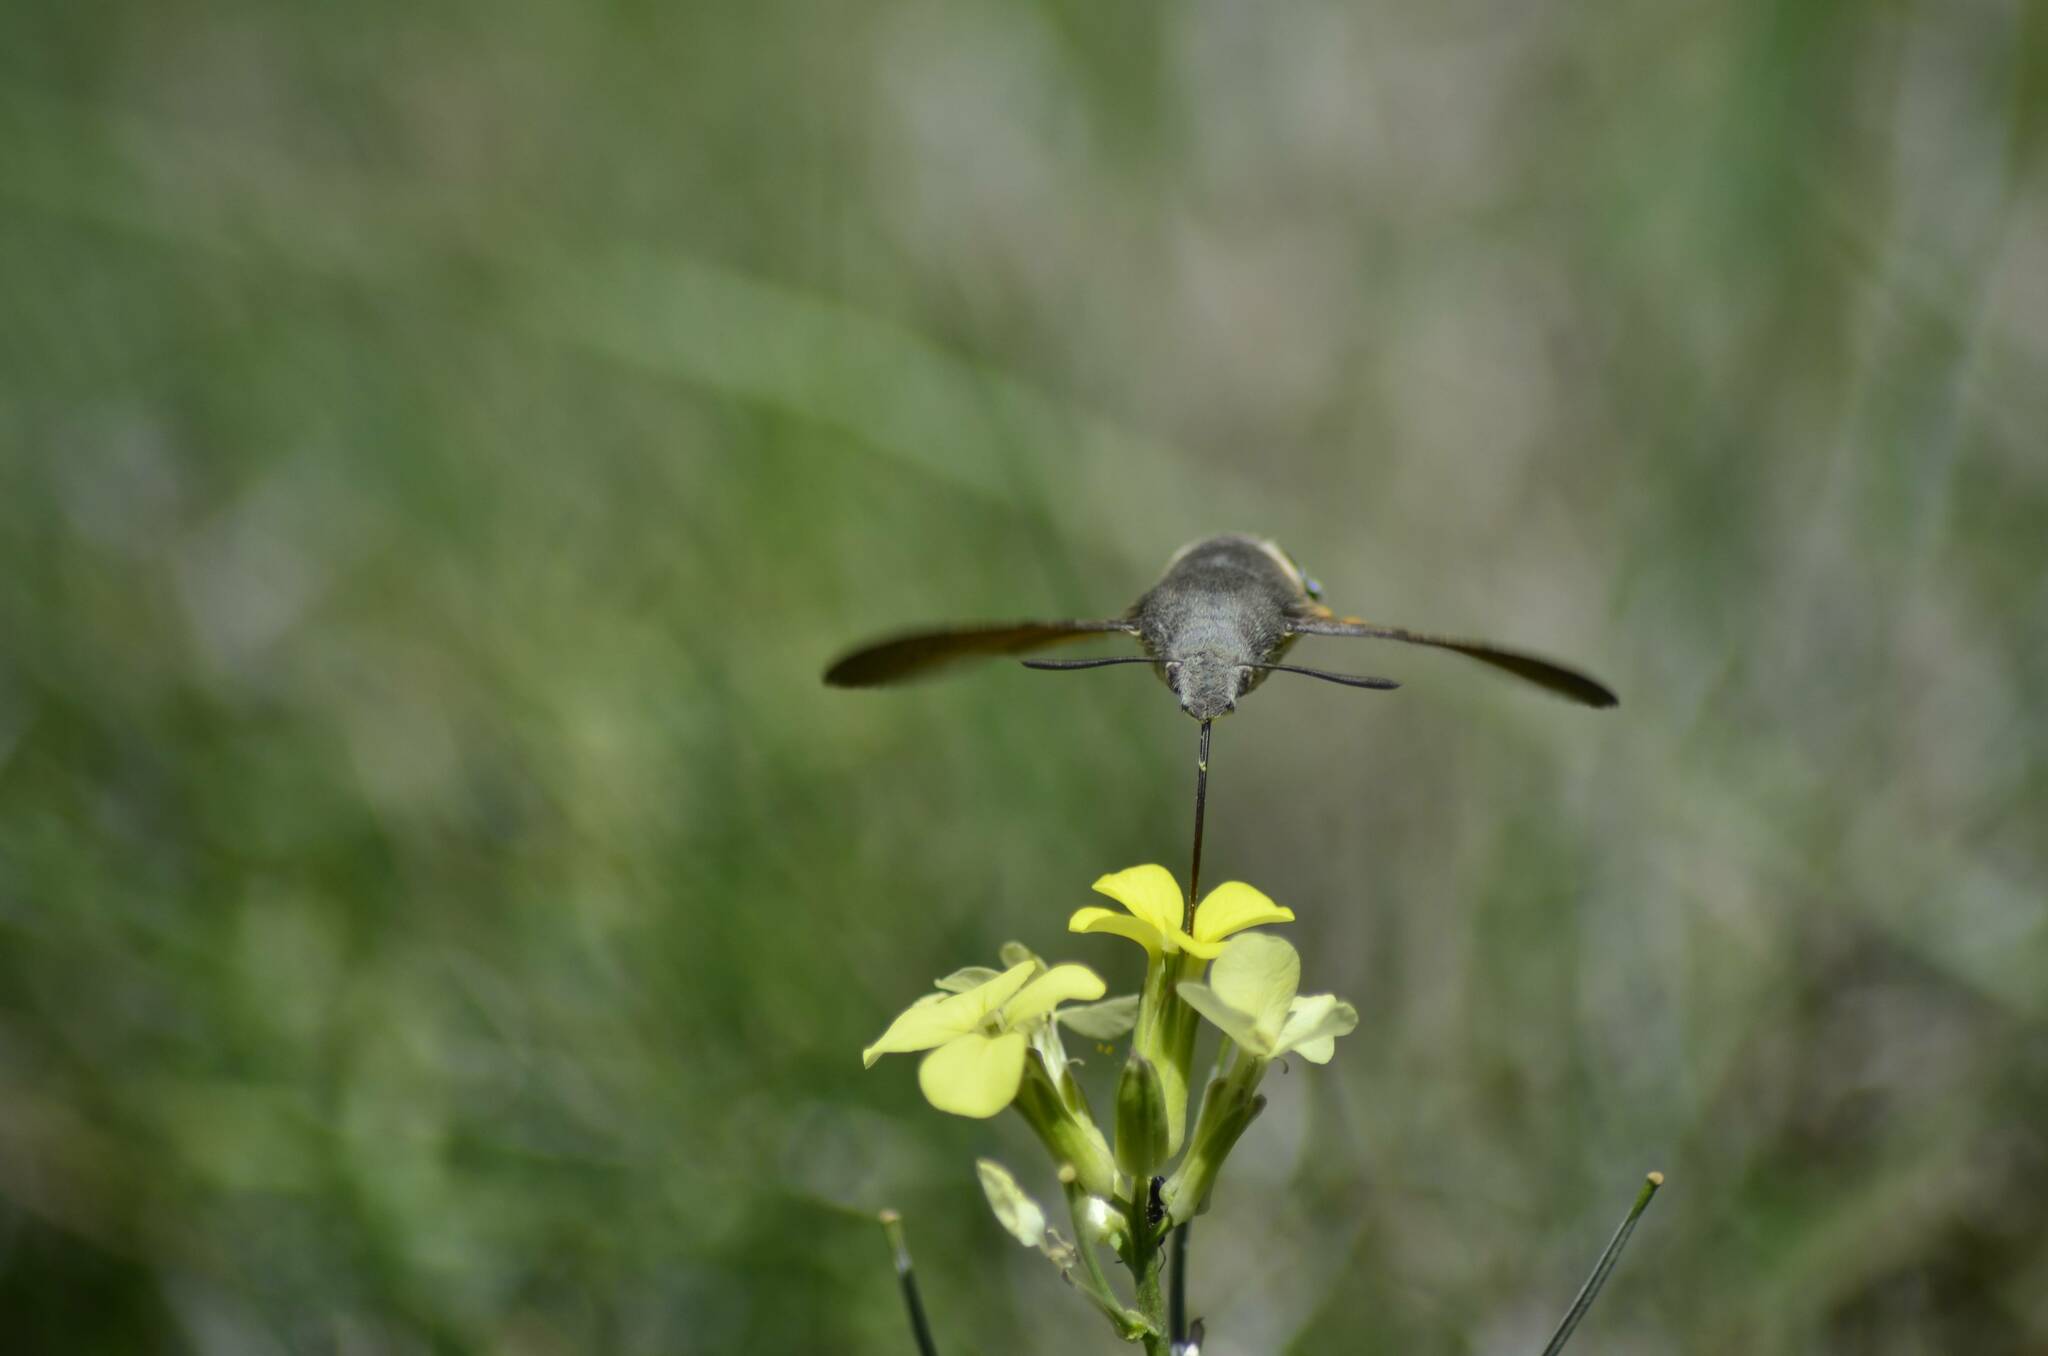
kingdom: Animalia
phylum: Arthropoda
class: Insecta
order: Lepidoptera
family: Sphingidae
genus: Macroglossum
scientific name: Macroglossum stellatarum
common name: Humming-bird hawk-moth
